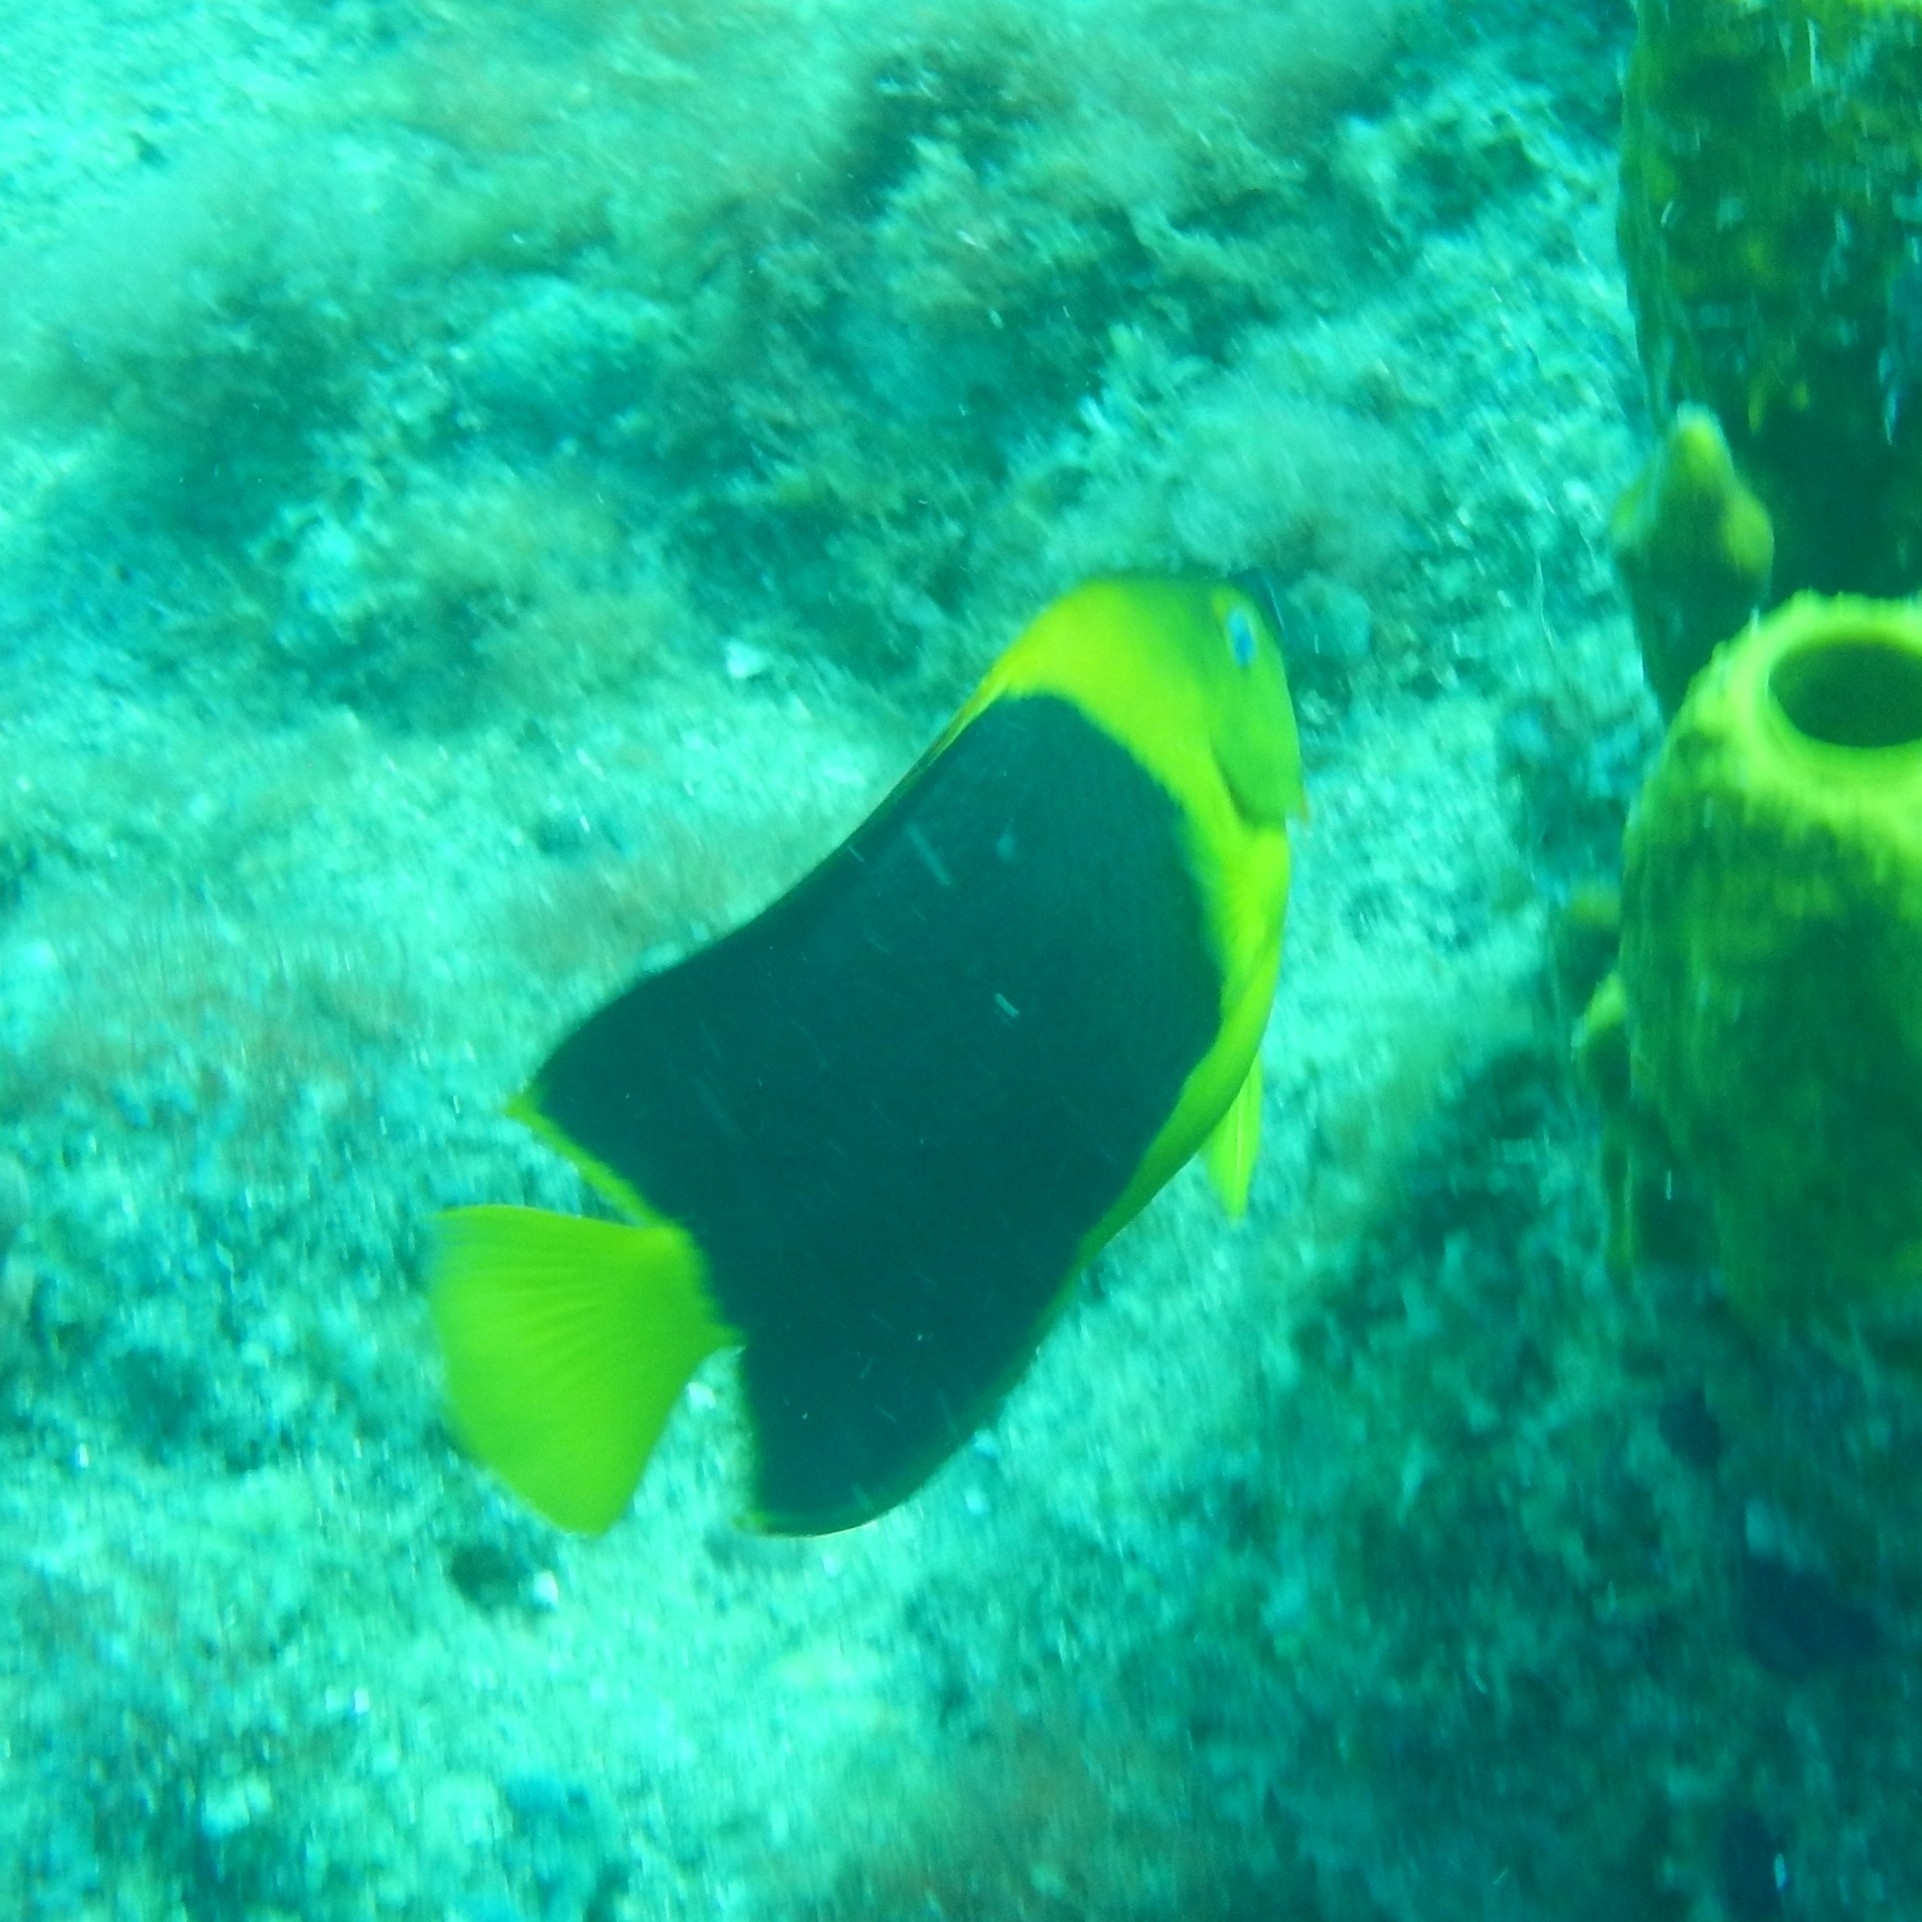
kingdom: Animalia
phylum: Chordata
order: Perciformes
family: Pomacanthidae
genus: Holacanthus
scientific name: Holacanthus tricolor
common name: Rock beauty
